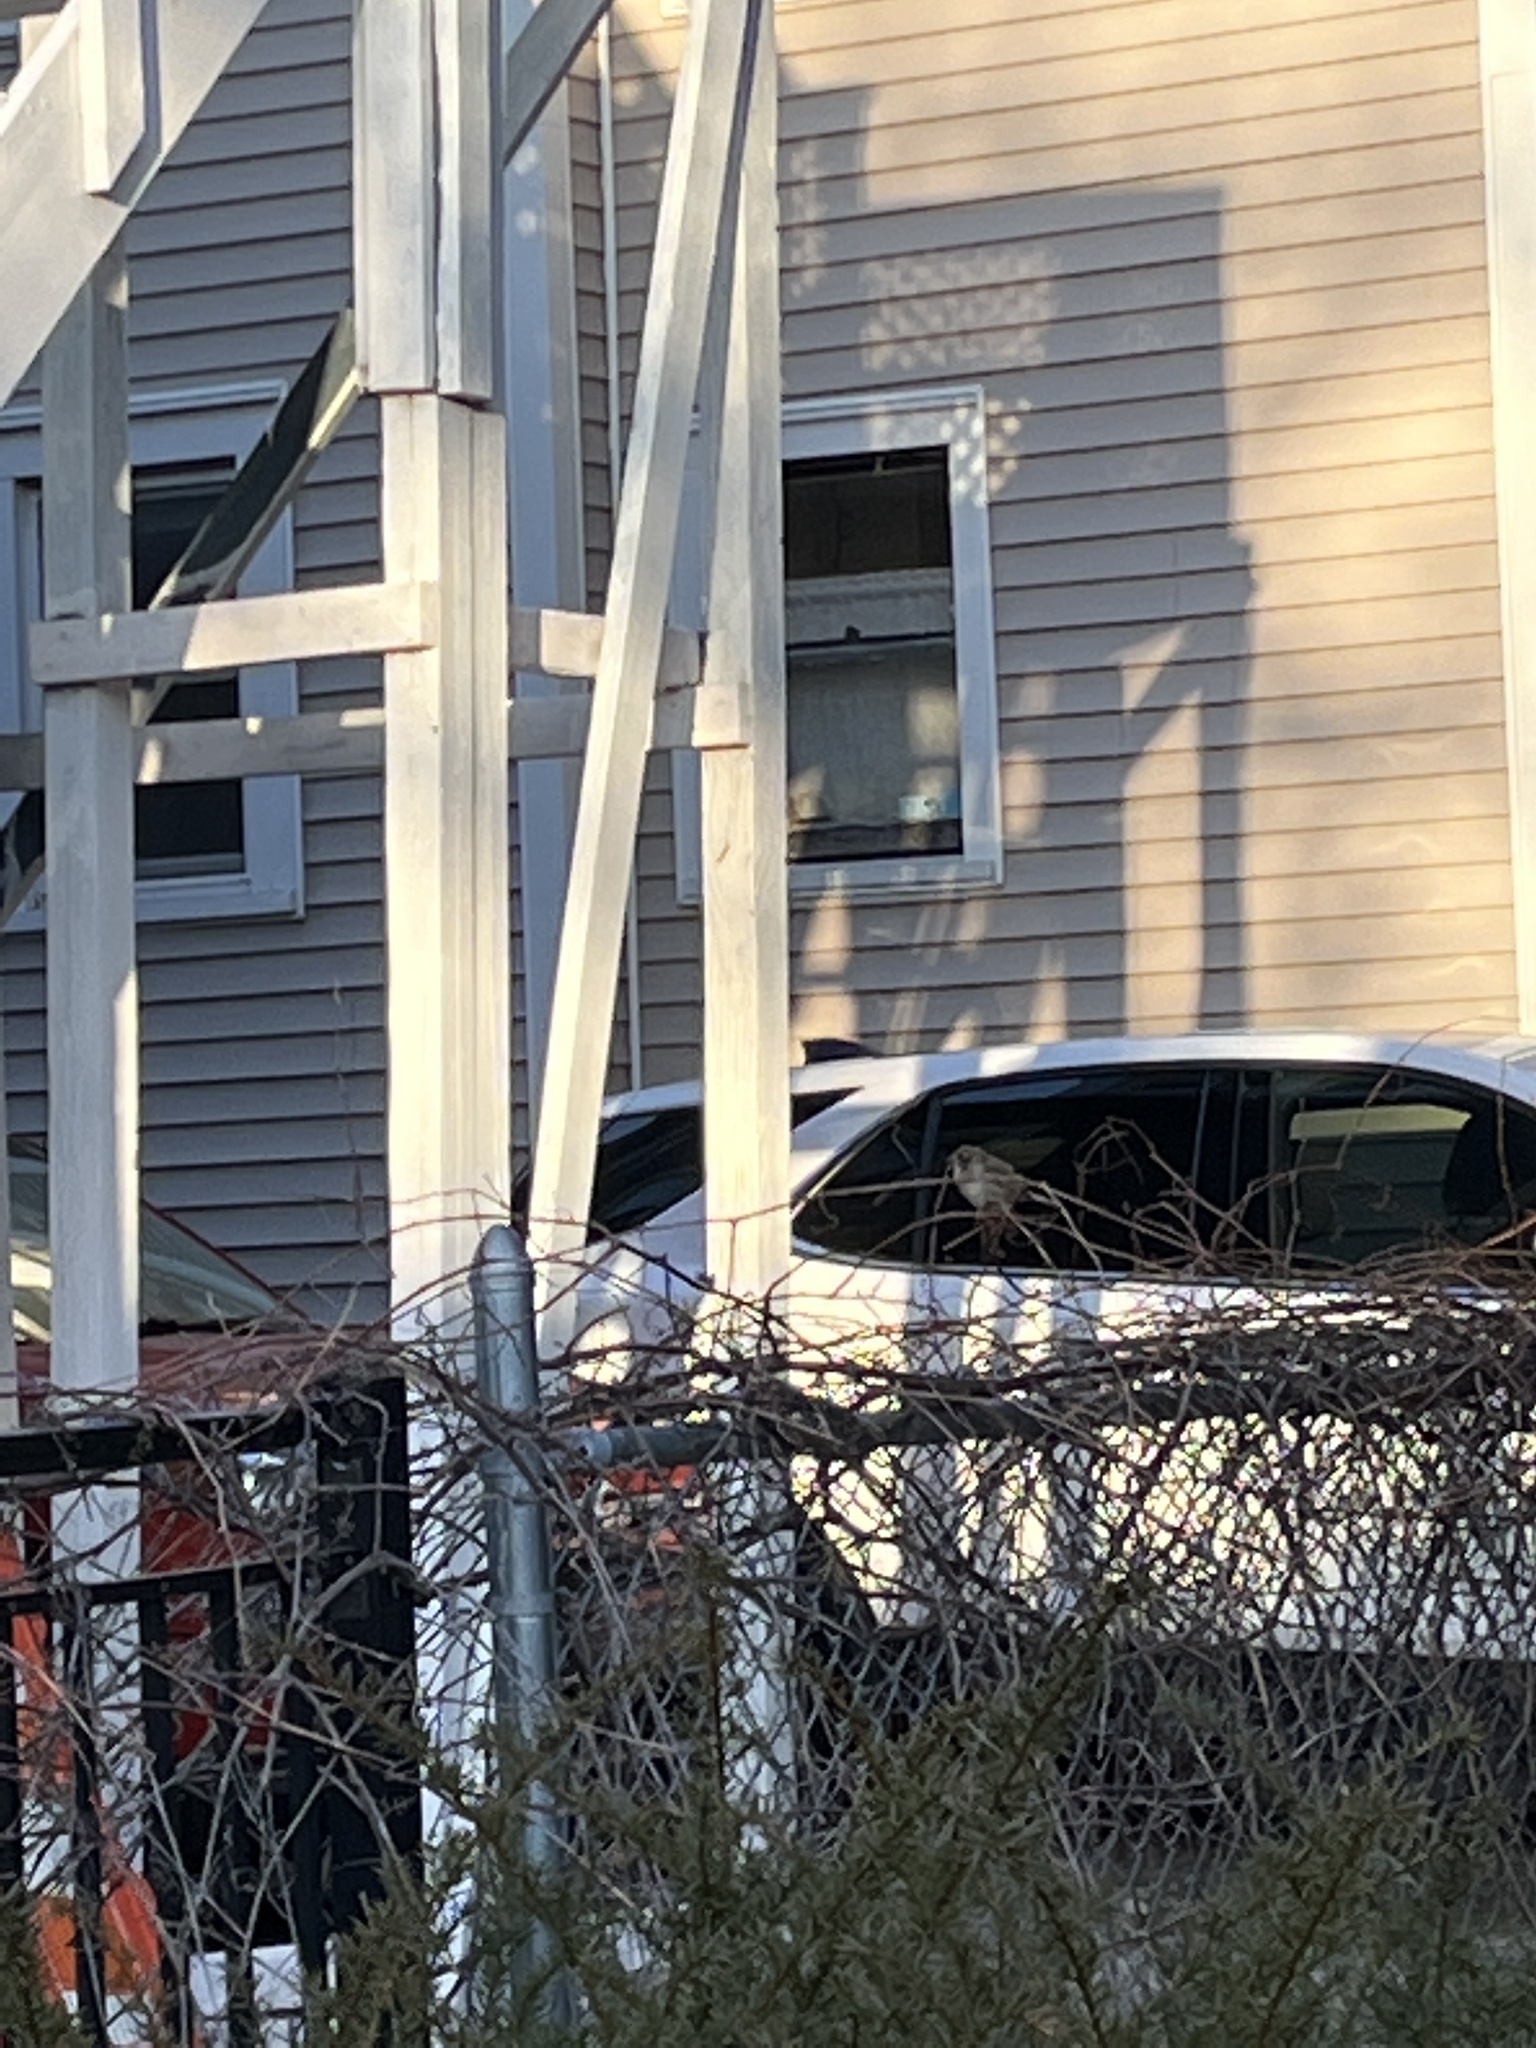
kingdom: Animalia
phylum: Chordata
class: Aves
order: Passeriformes
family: Passeridae
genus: Passer
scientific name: Passer domesticus
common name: House sparrow
